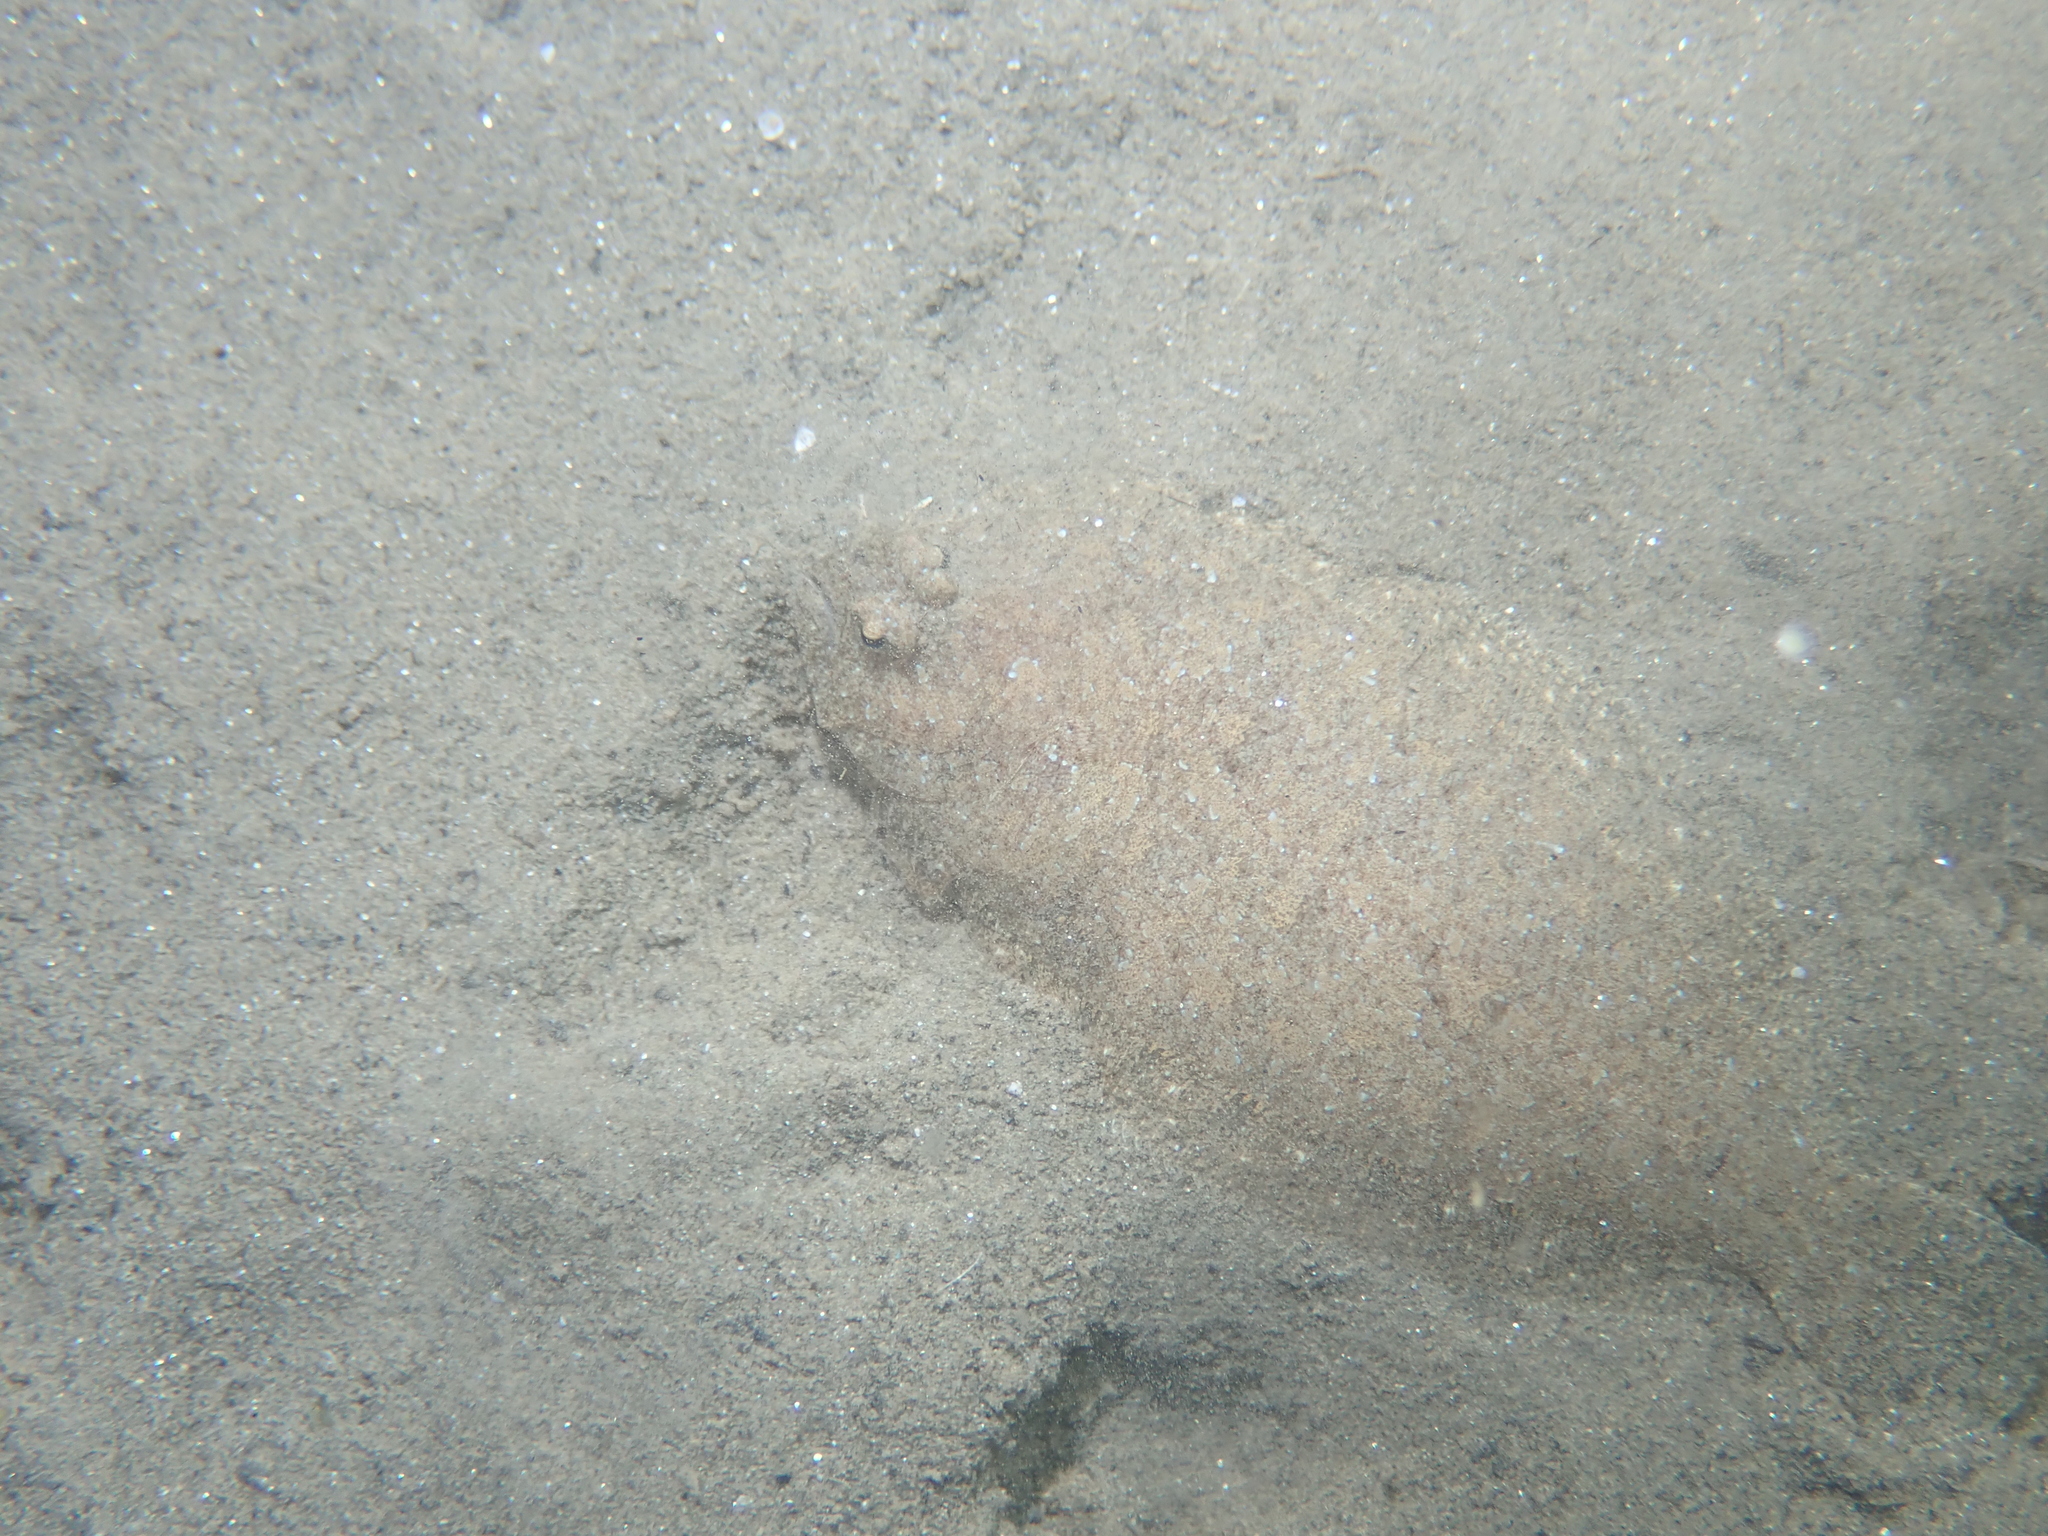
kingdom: Plantae
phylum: Tracheophyta
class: Magnoliopsida
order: Asterales
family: Asteraceae
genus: Arnoglossum
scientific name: Arnoglossum
